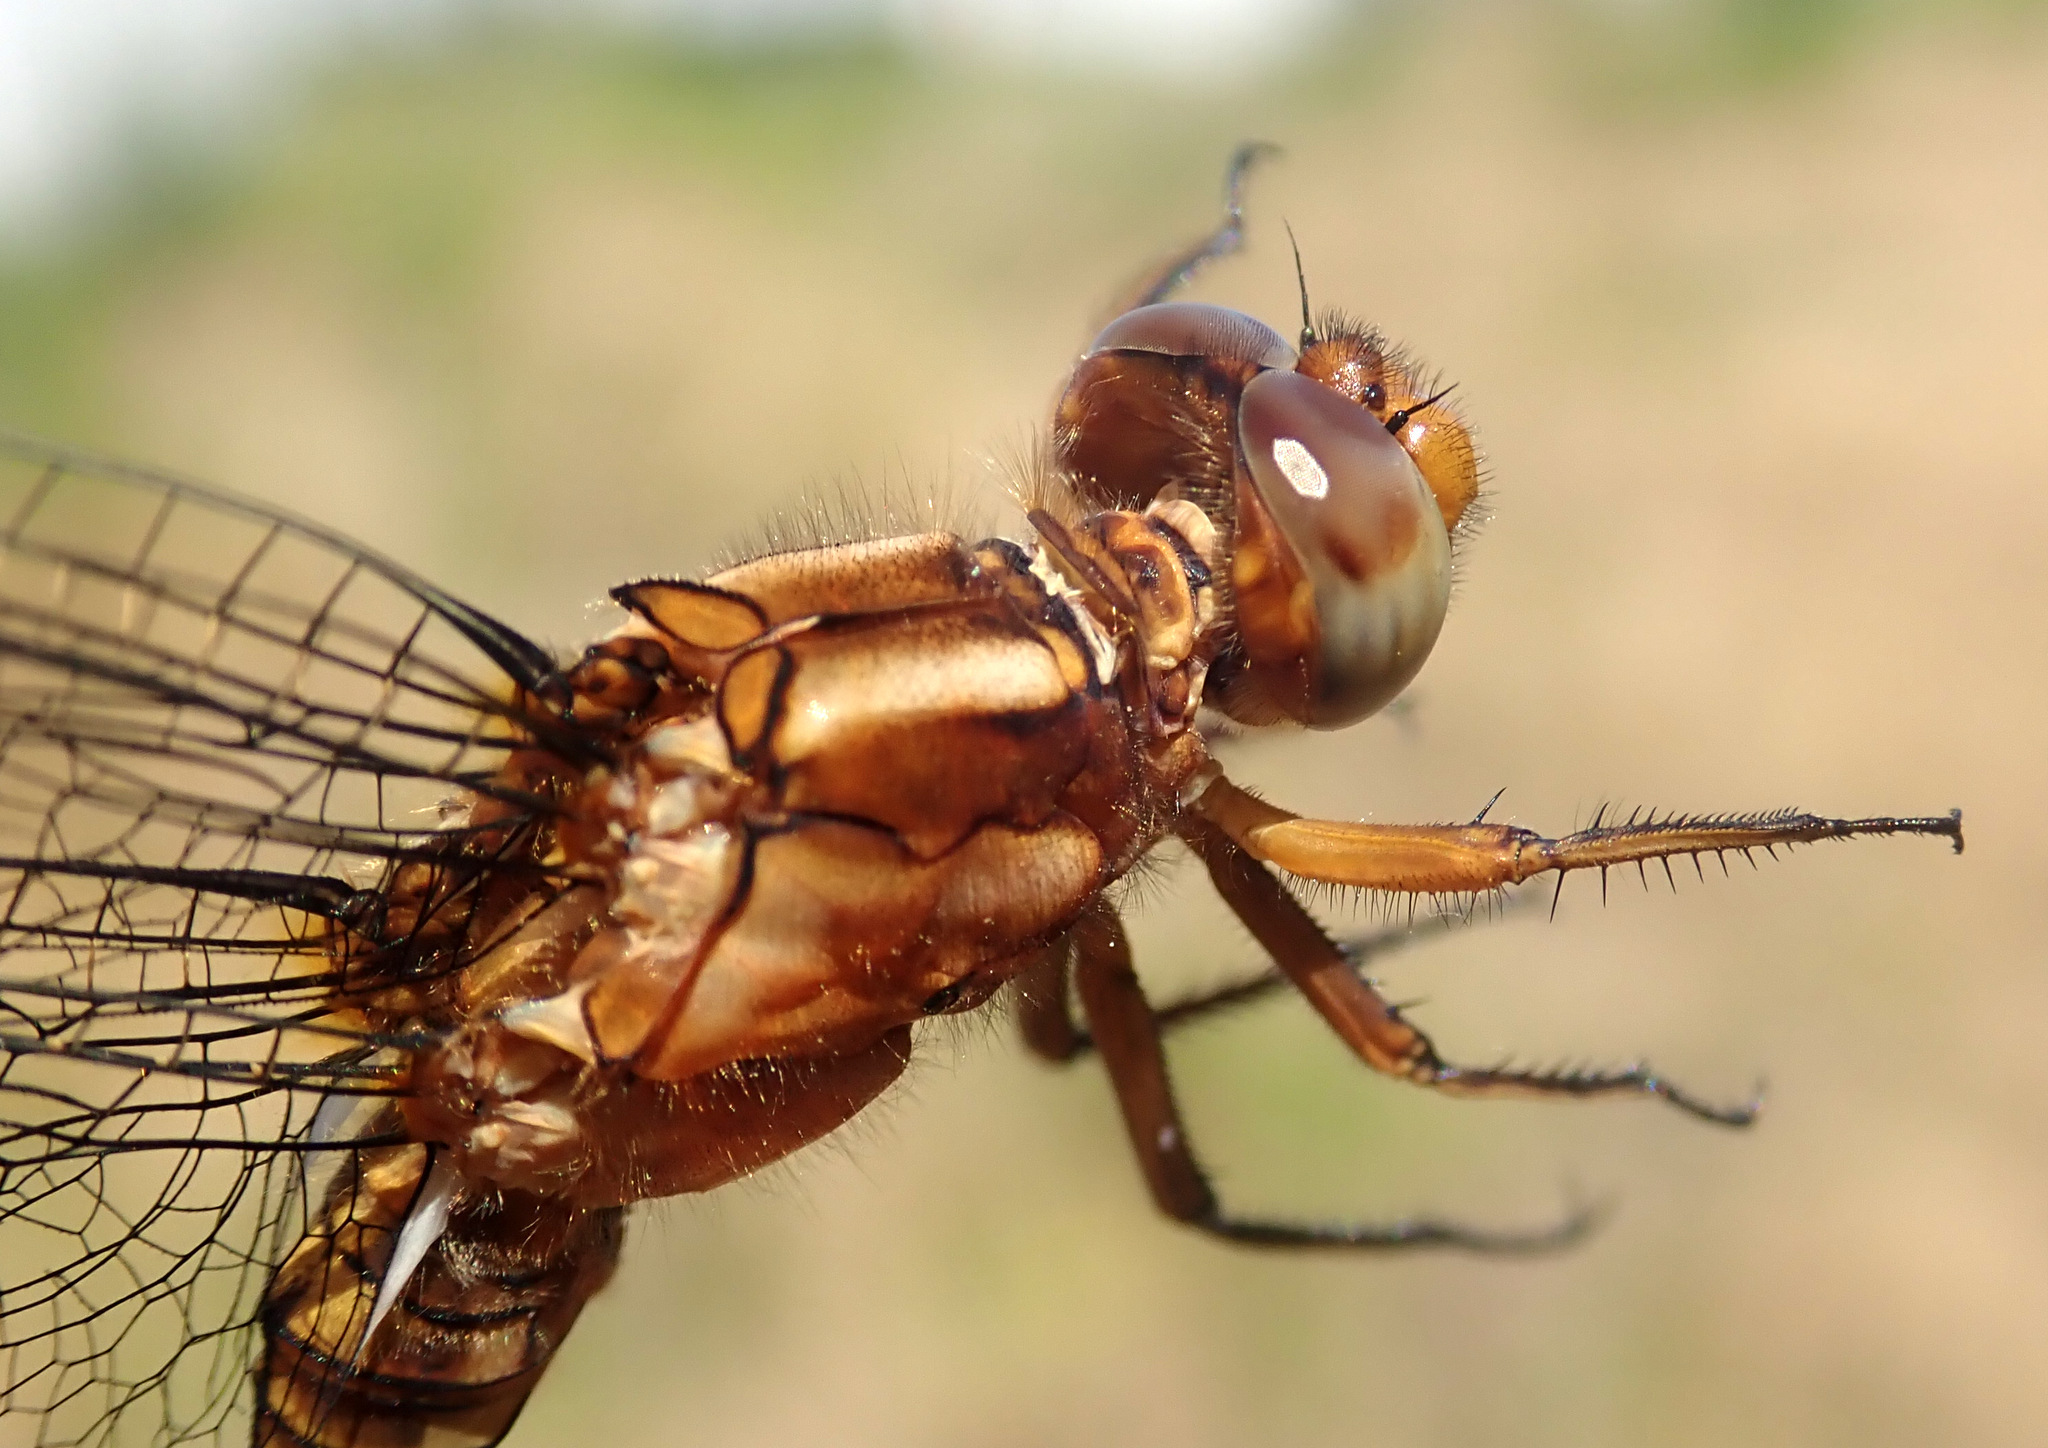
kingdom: Animalia
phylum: Arthropoda
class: Insecta
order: Odonata
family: Libellulidae
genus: Orthetrum
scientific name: Orthetrum coerulescens
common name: Keeled skimmer
